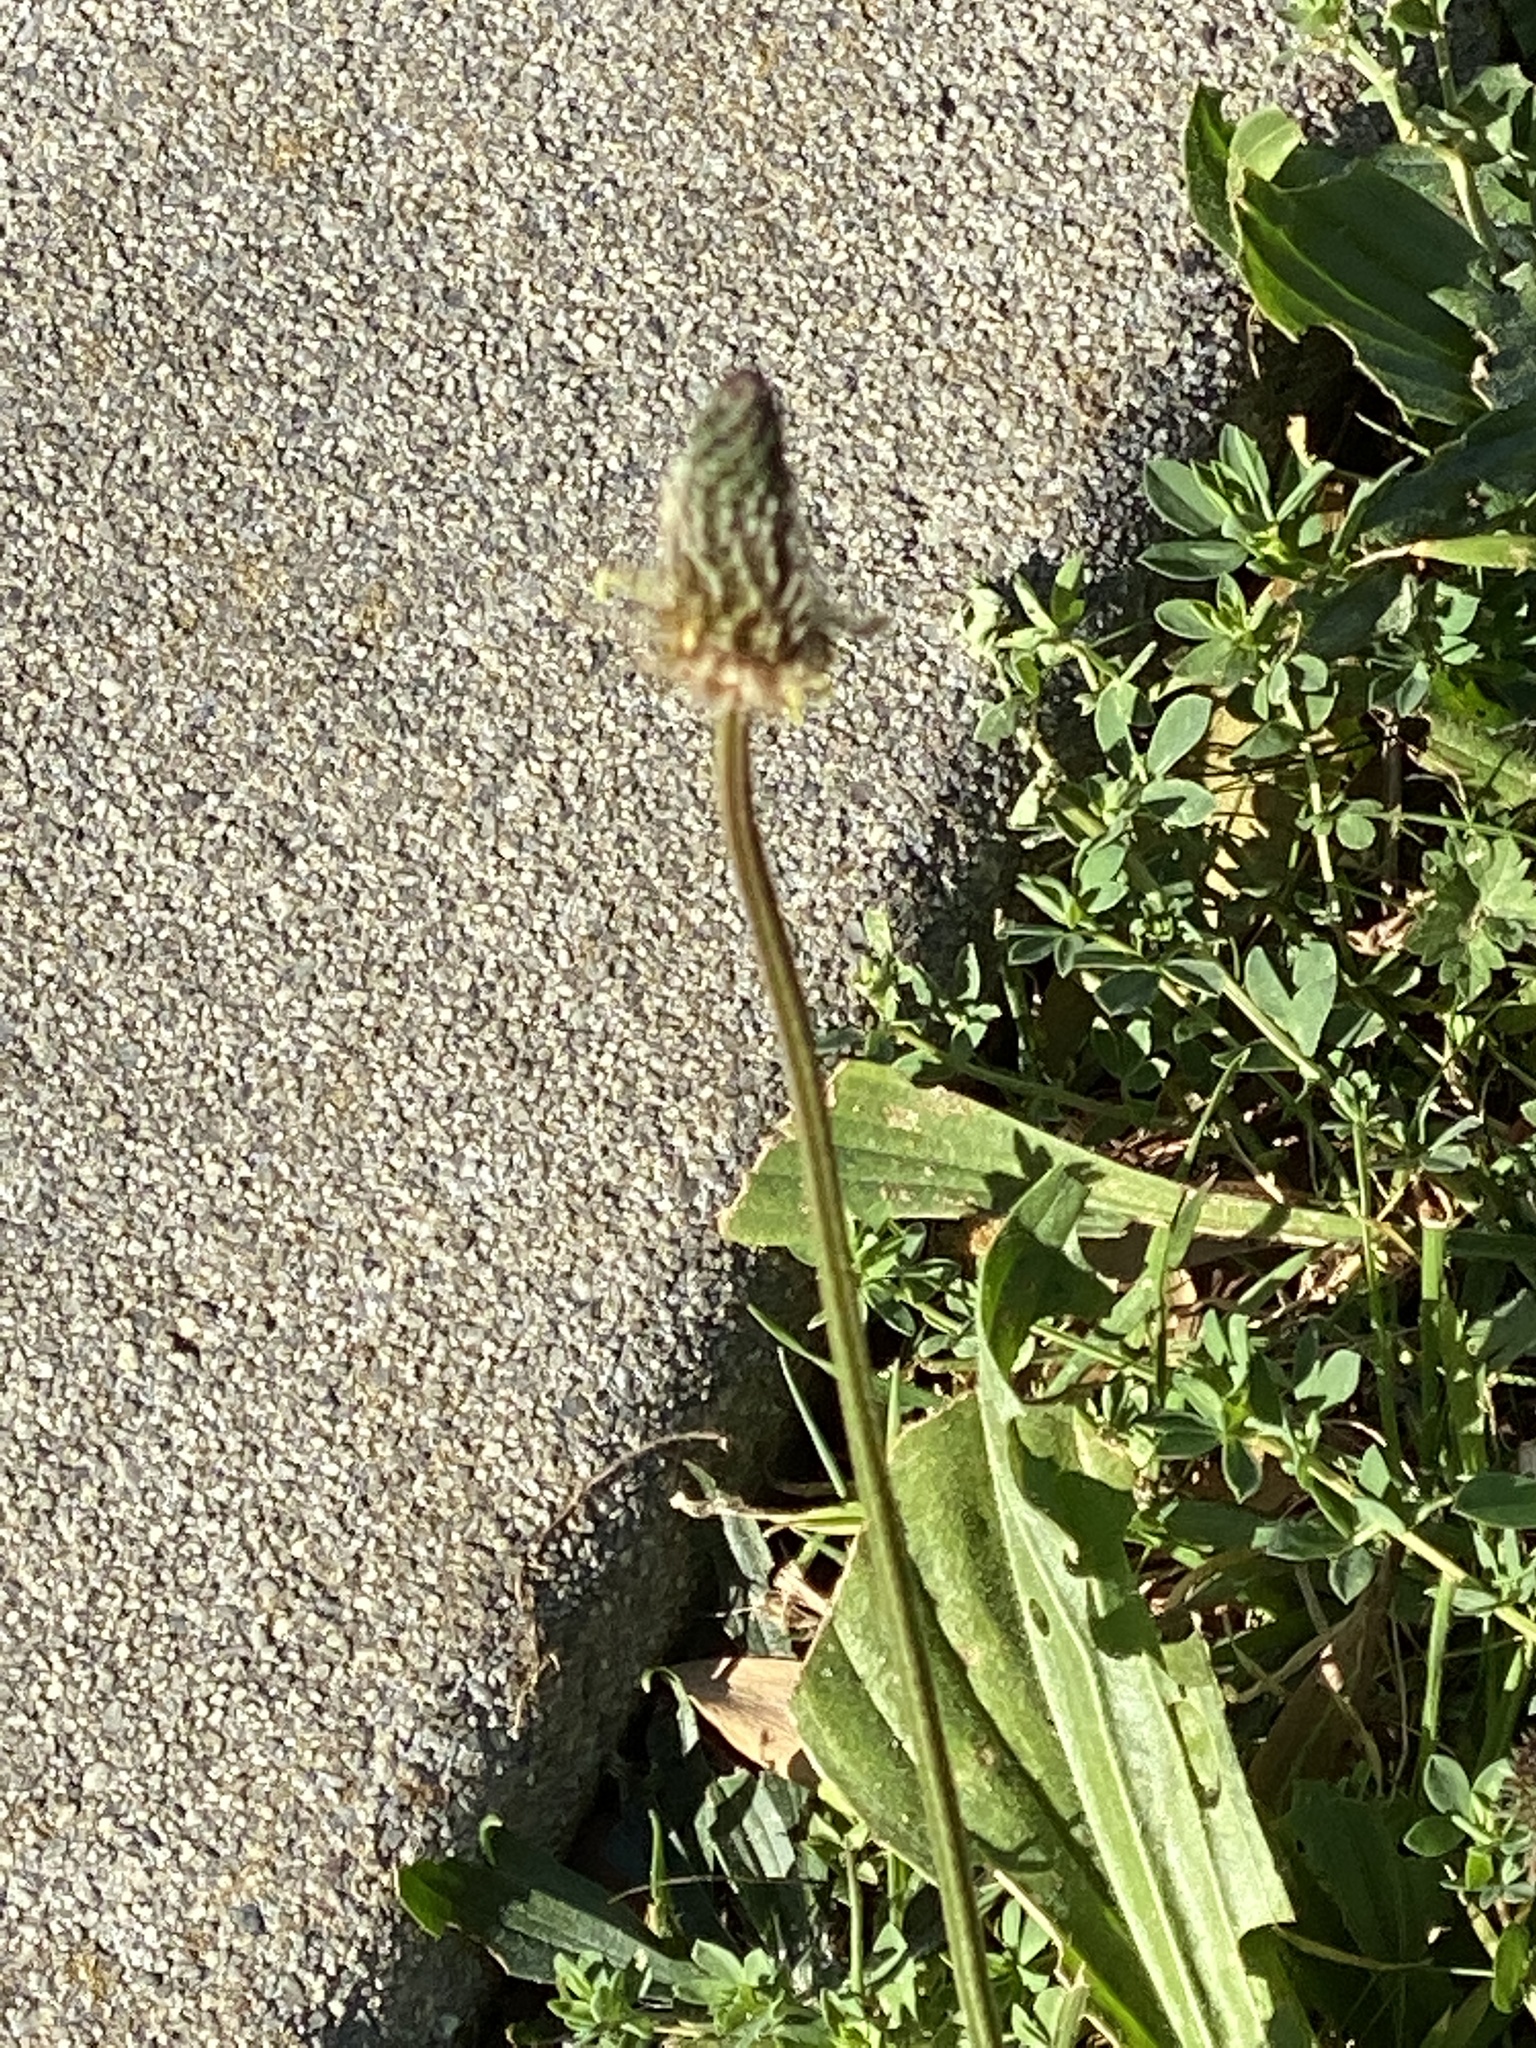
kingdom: Plantae
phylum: Tracheophyta
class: Magnoliopsida
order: Lamiales
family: Plantaginaceae
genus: Plantago
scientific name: Plantago lanceolata
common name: Ribwort plantain
